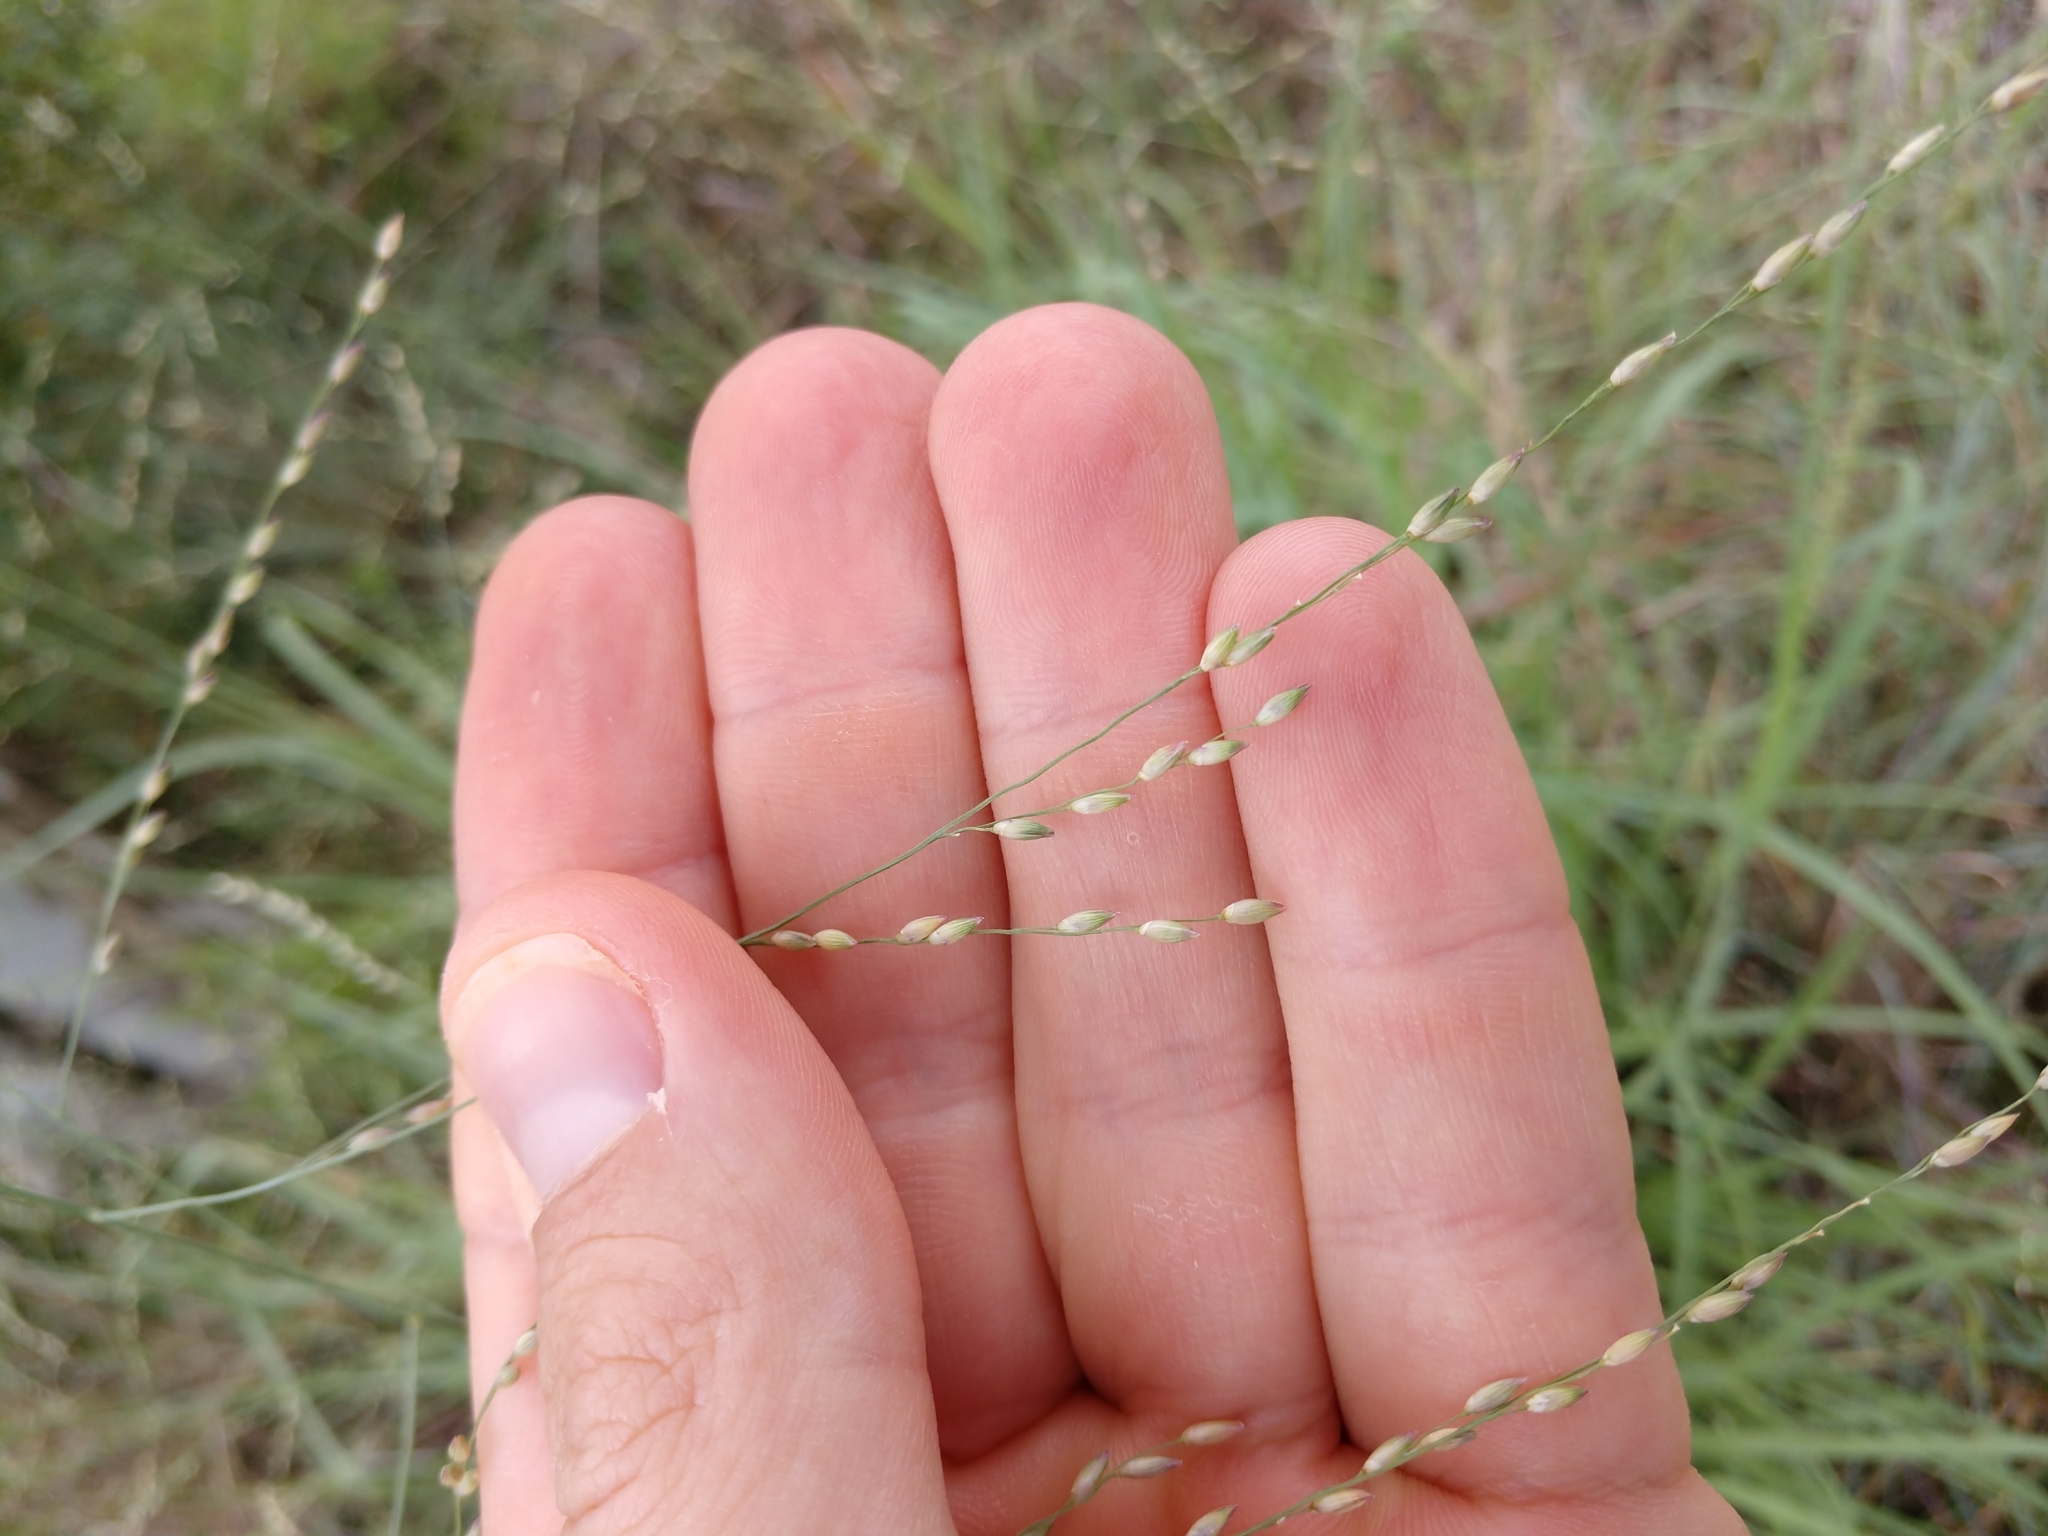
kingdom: Plantae
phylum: Tracheophyta
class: Liliopsida
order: Poales
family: Poaceae
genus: Panicum
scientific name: Panicum coloratum
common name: Kleingrass
